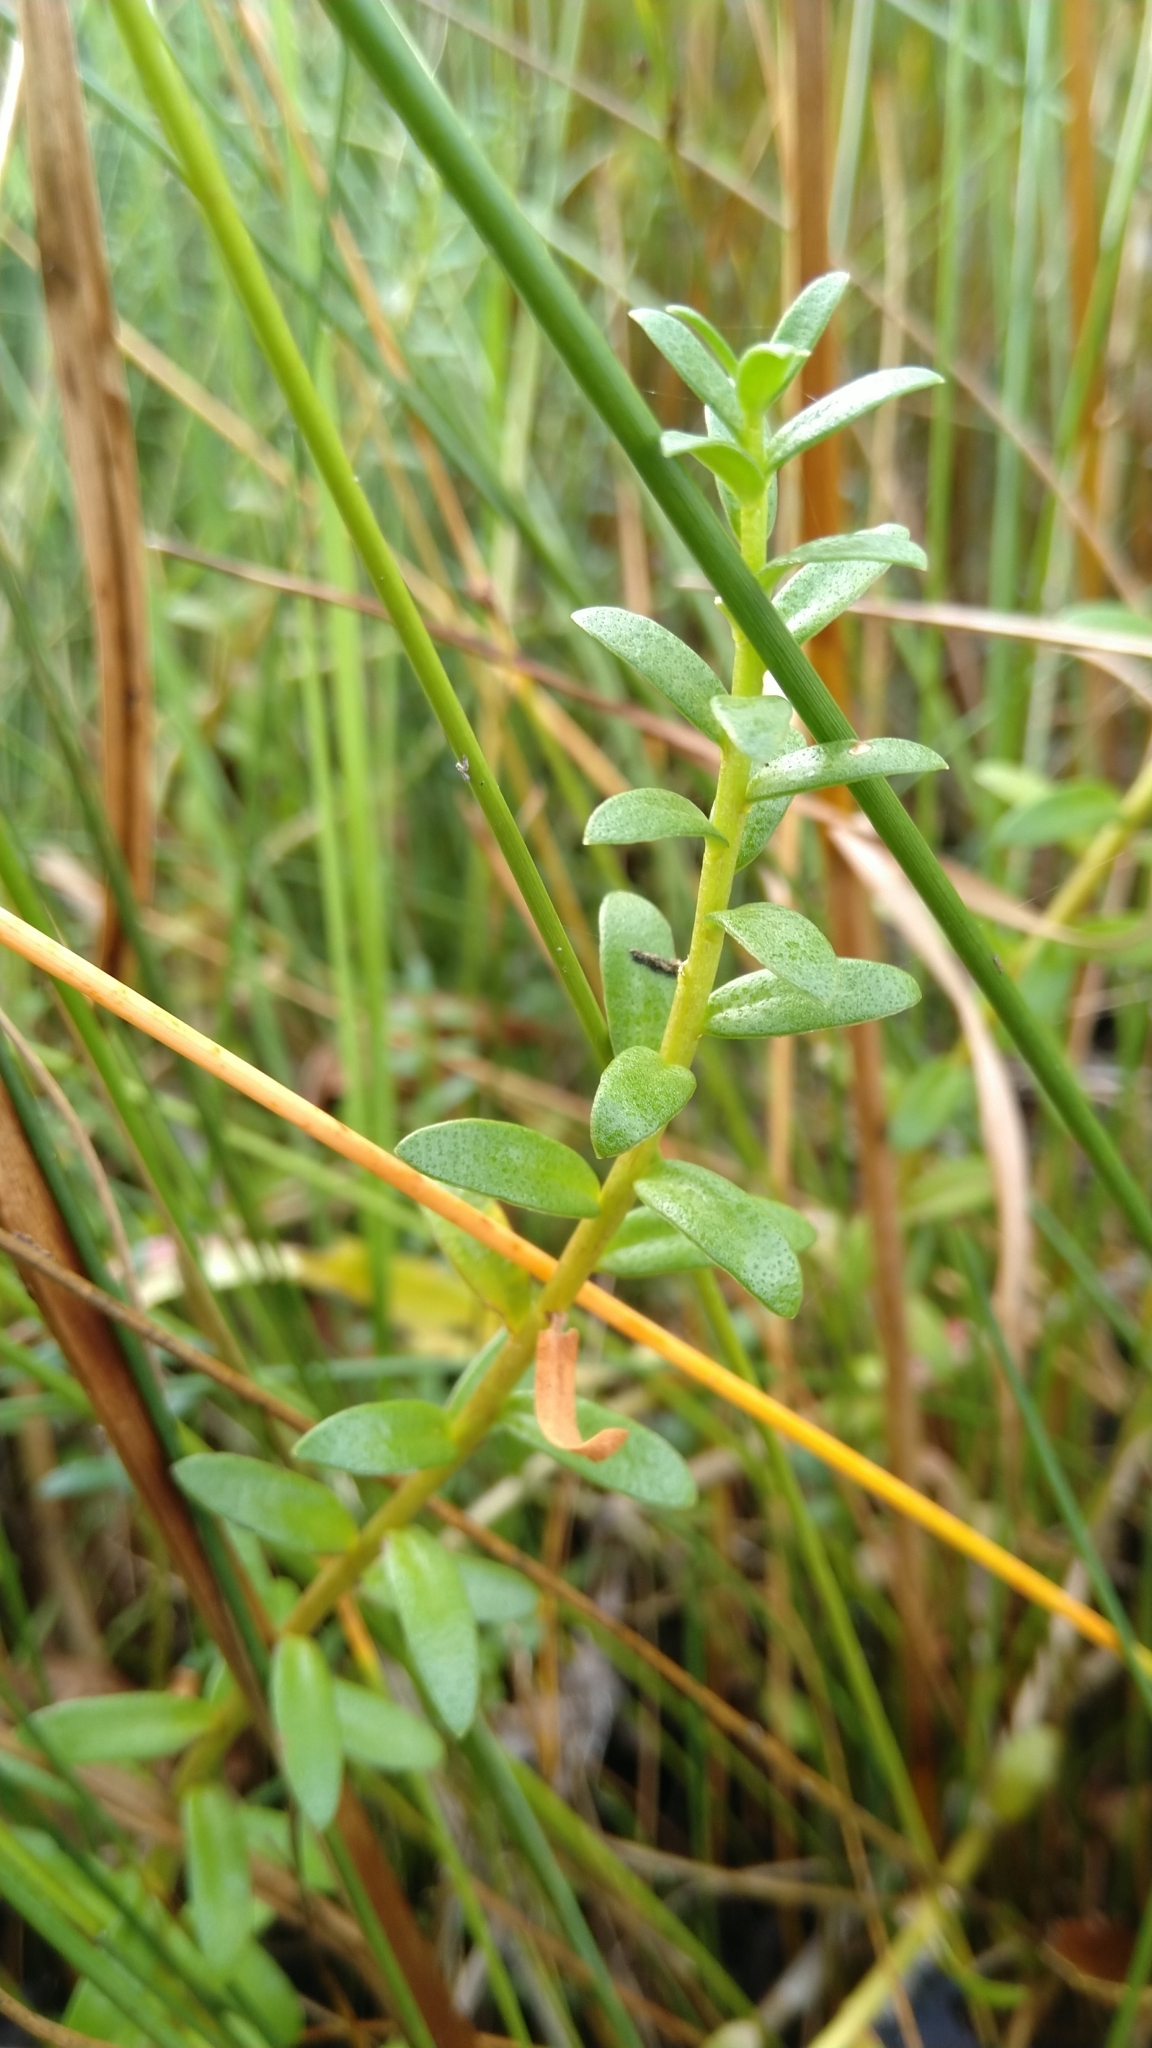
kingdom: Plantae
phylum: Tracheophyta
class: Magnoliopsida
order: Ericales
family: Primulaceae
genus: Lysimachia
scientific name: Lysimachia maritima
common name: Sea milkwort
